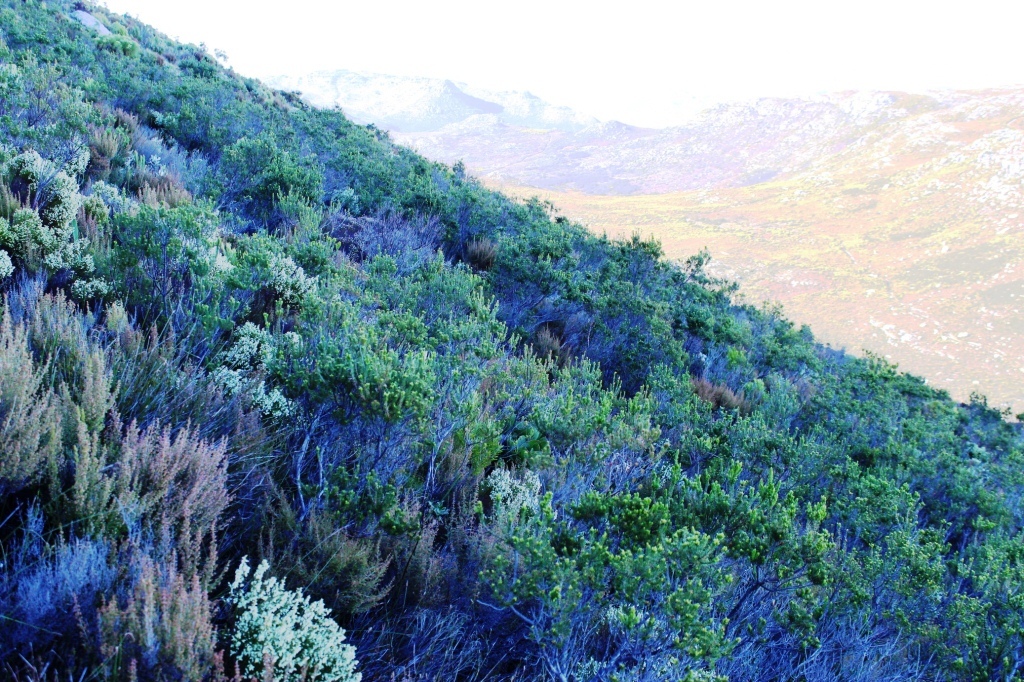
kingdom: Plantae
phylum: Tracheophyta
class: Magnoliopsida
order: Ericales
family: Ericaceae
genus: Erica
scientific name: Erica mammosa
